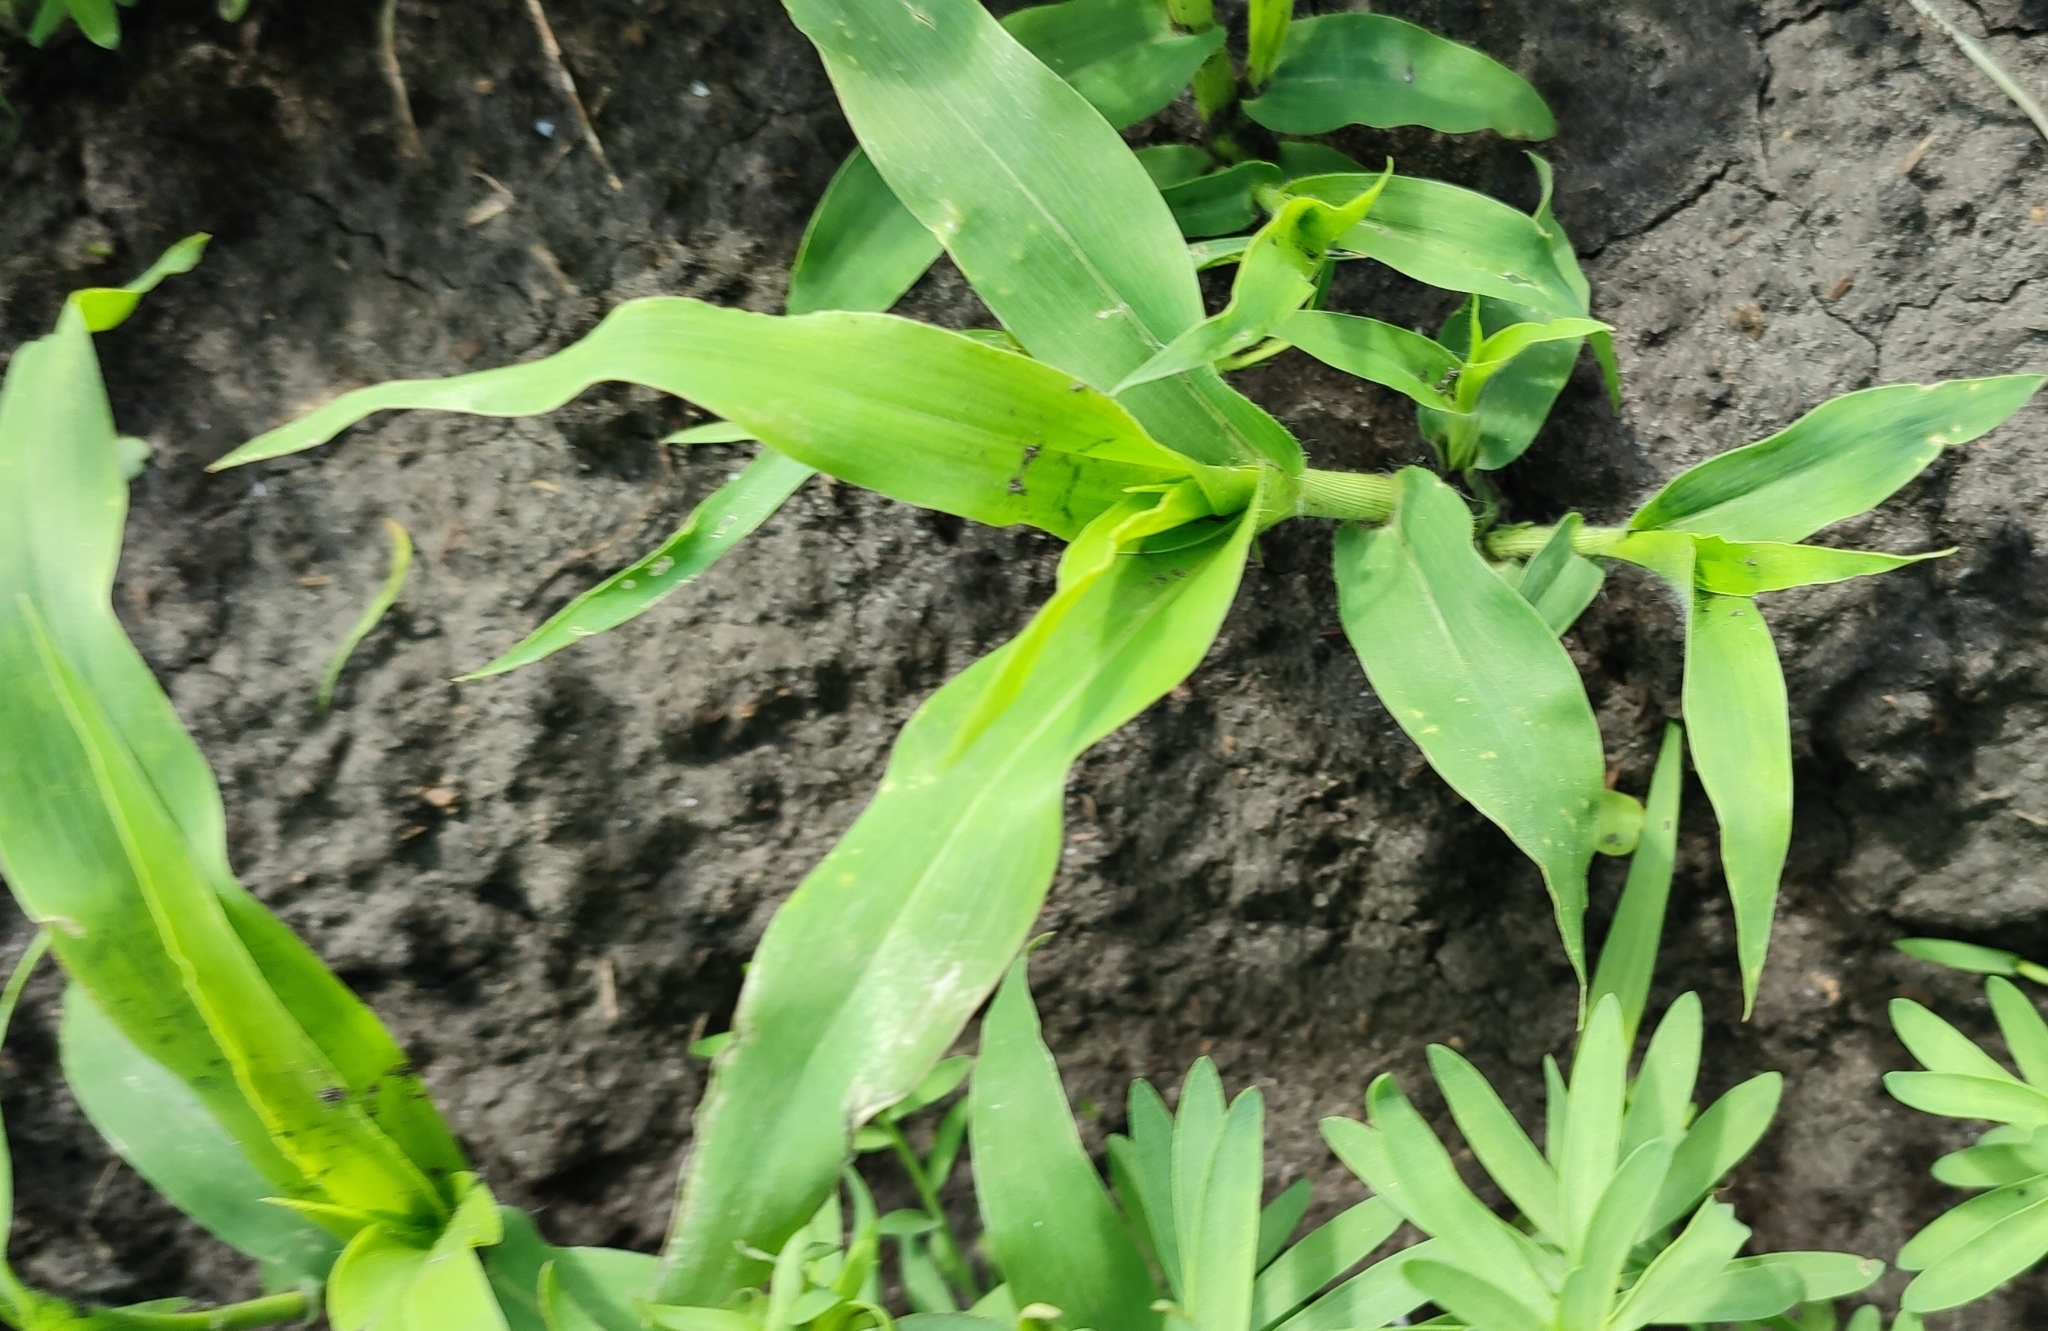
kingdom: Plantae
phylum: Tracheophyta
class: Liliopsida
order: Poales
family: Poaceae
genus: Panicum
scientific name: Panicum miliaceum
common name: Common millet
